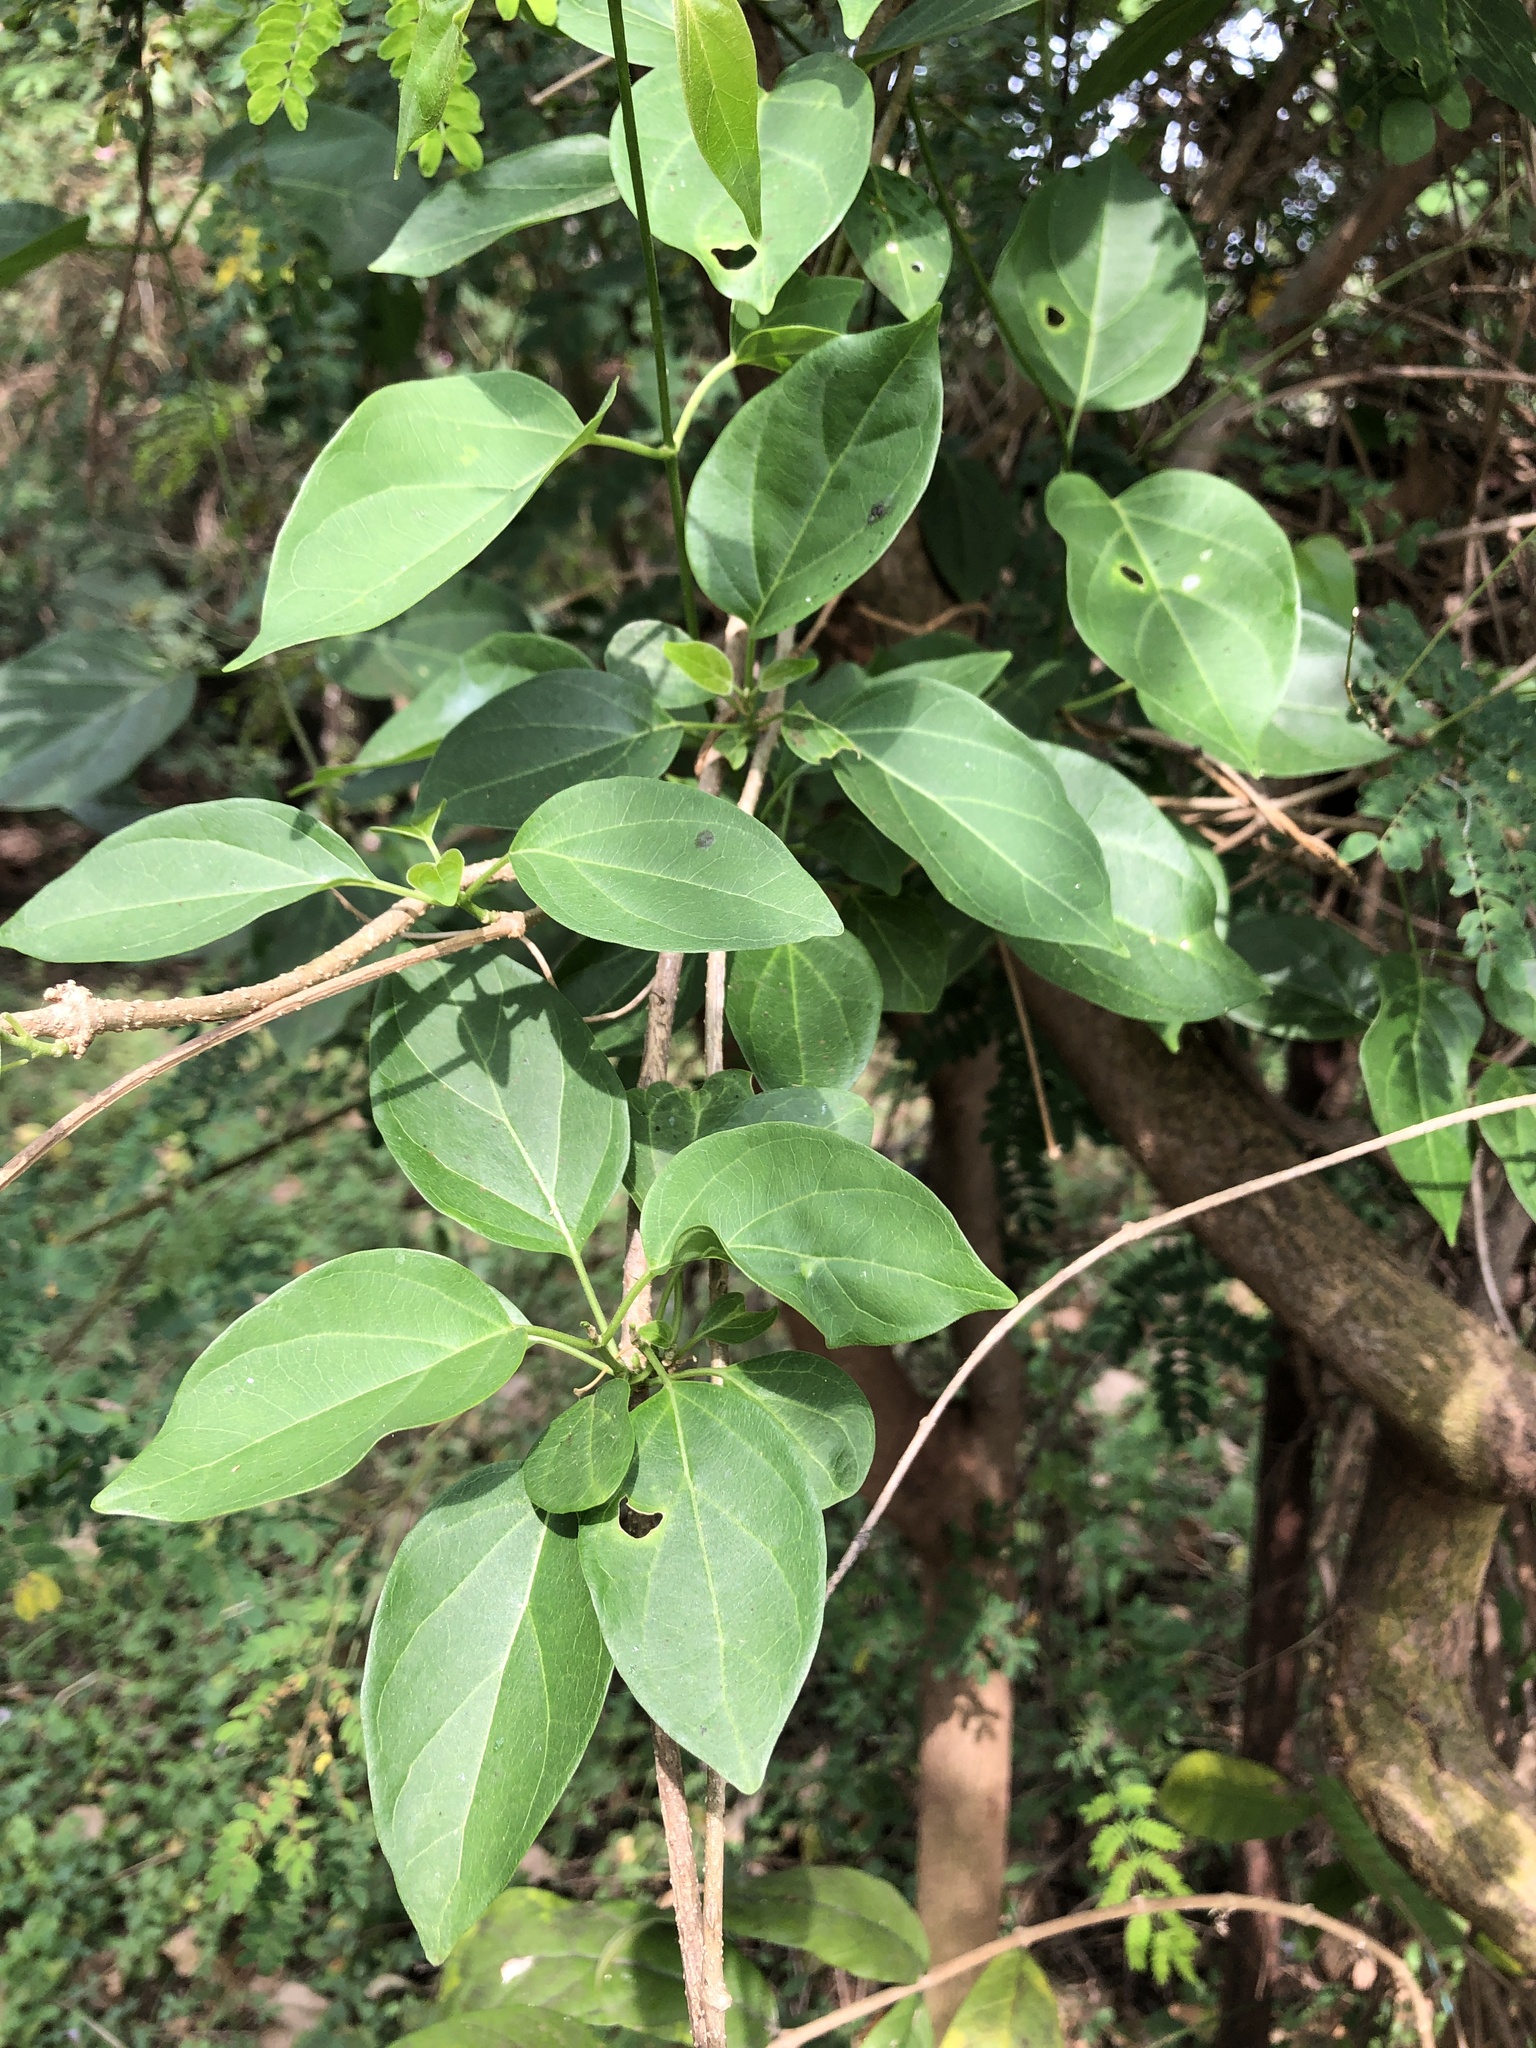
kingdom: Plantae
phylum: Tracheophyta
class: Magnoliopsida
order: Gentianales
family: Apocynaceae
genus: Stephanotis
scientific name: Stephanotis volubilis
